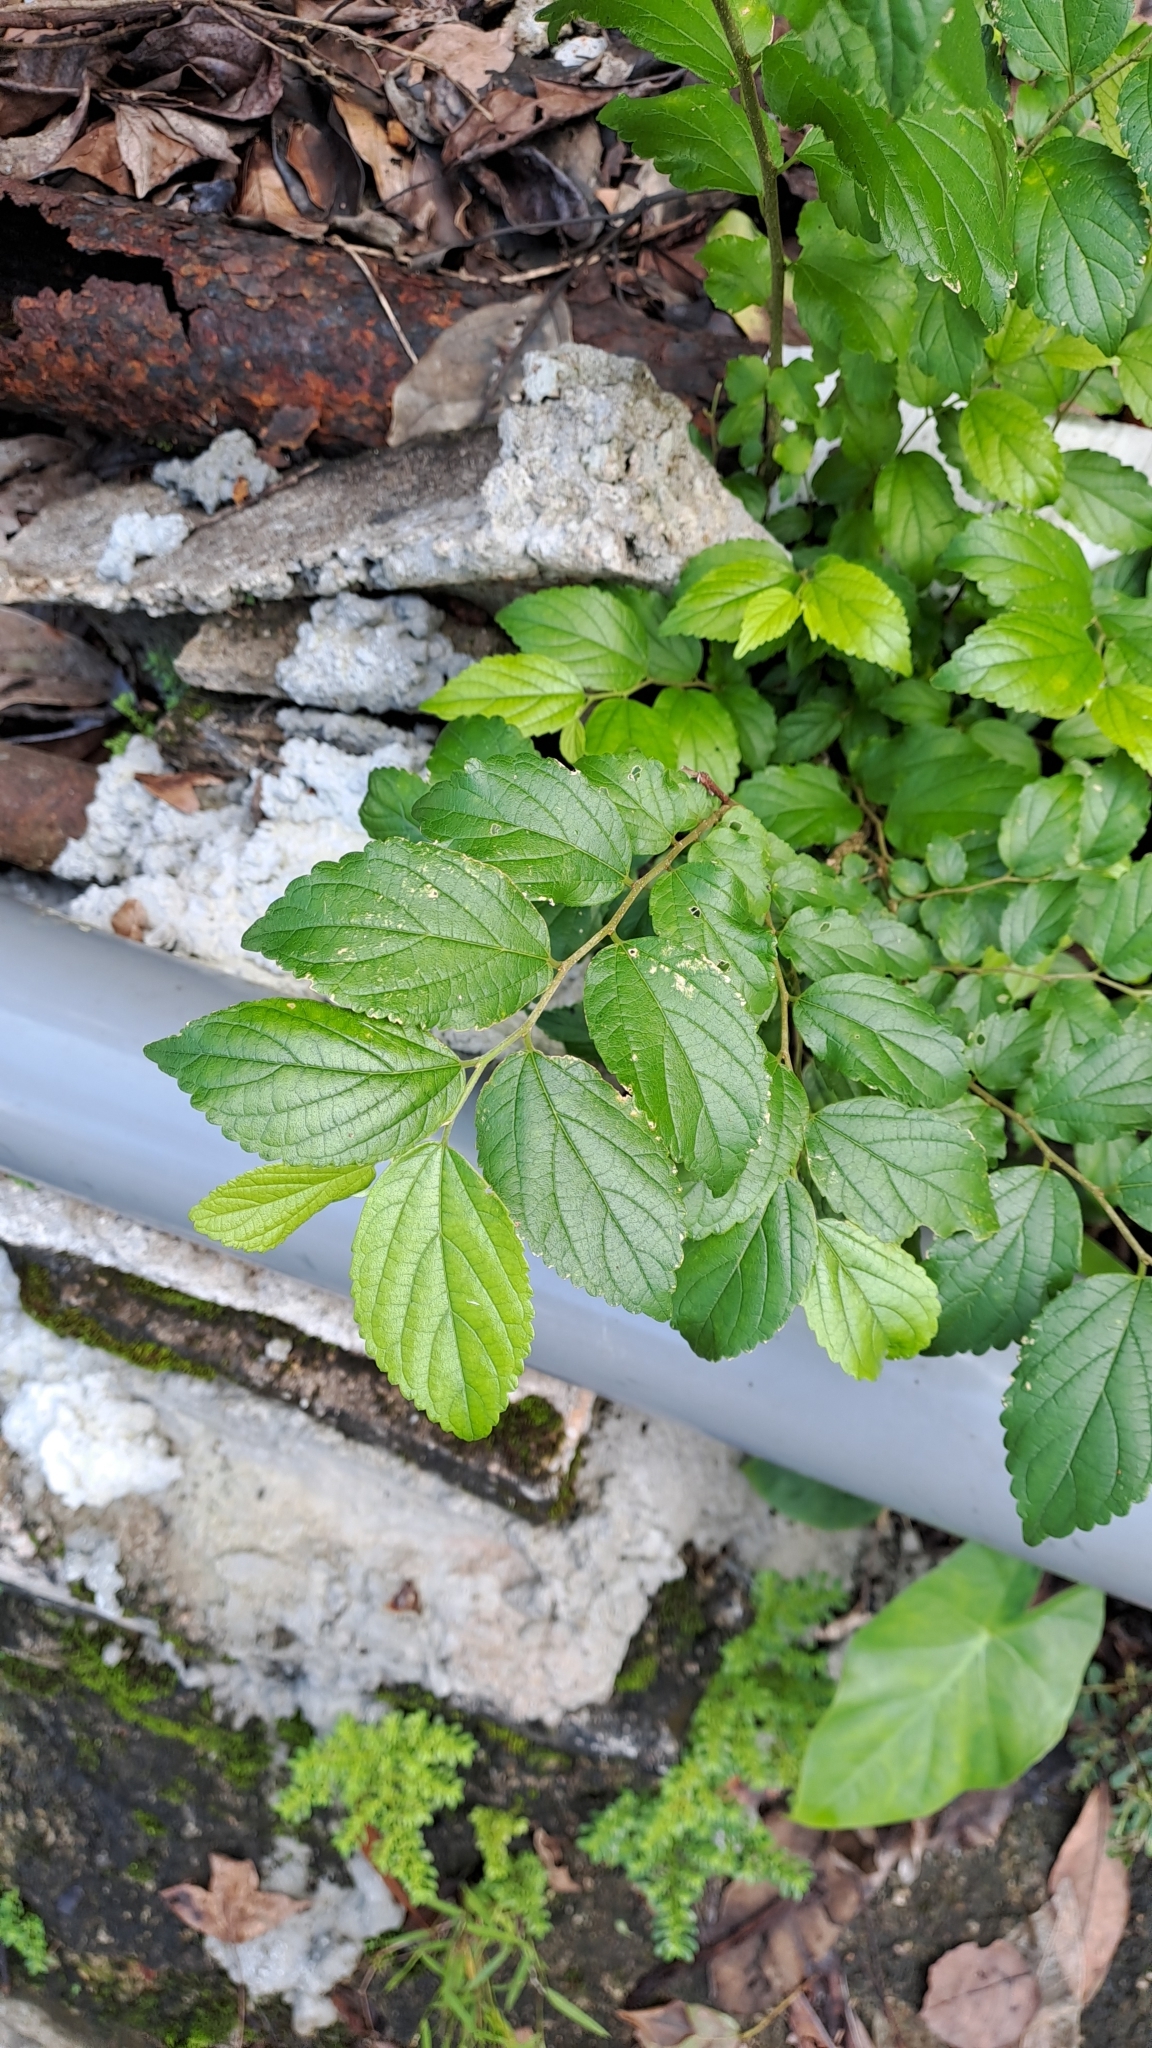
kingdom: Plantae
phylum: Tracheophyta
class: Magnoliopsida
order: Rosales
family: Cannabaceae
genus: Celtis
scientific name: Celtis sinensis
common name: Chinese hackberry
